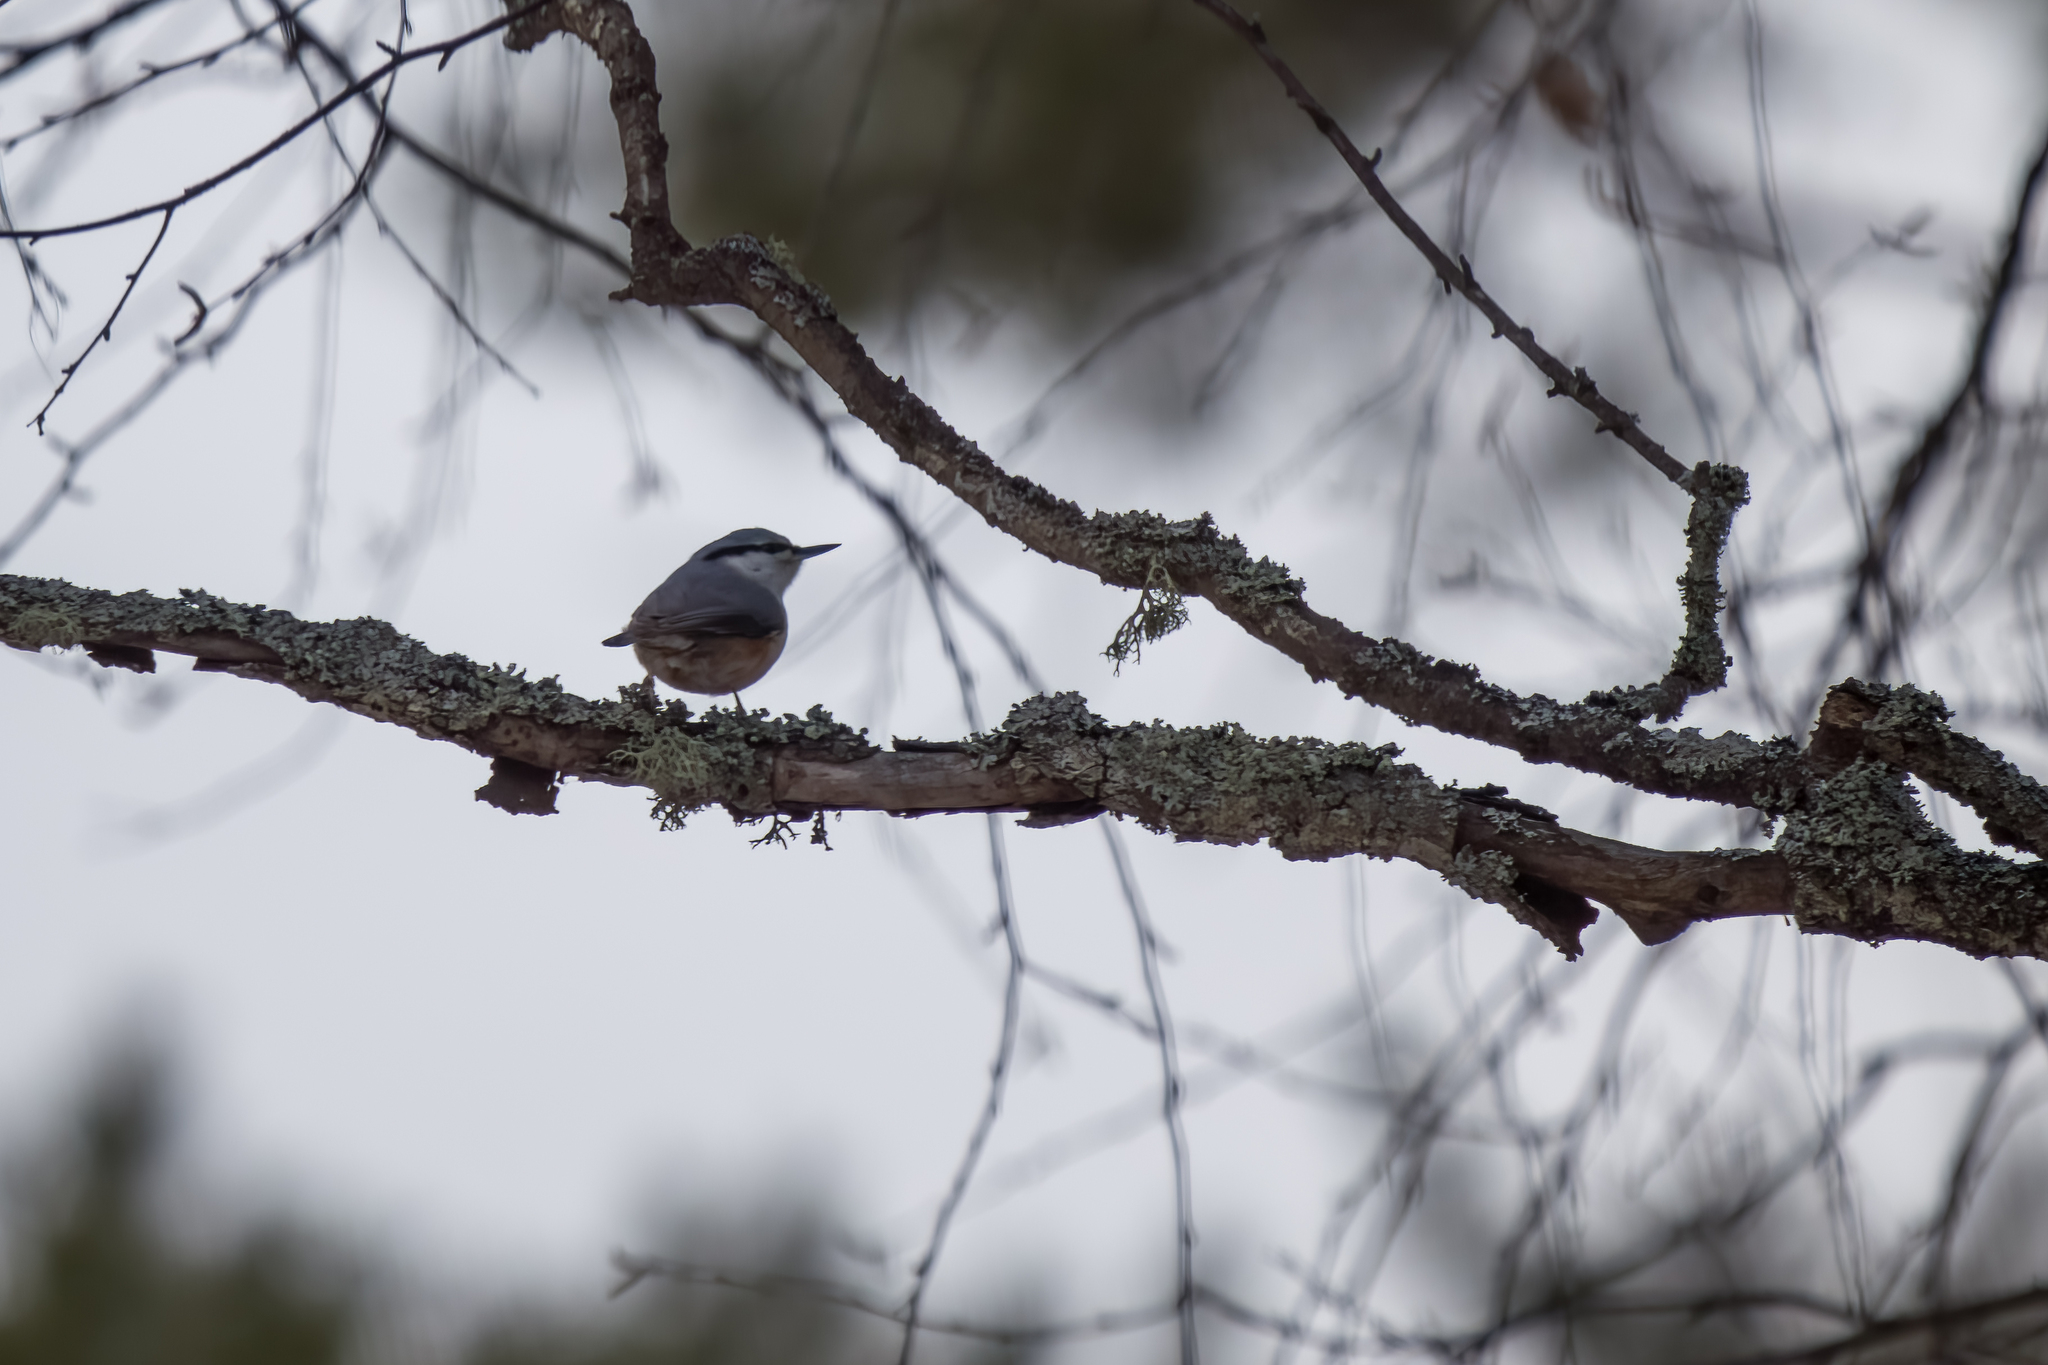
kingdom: Animalia
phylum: Chordata
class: Aves
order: Passeriformes
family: Sittidae
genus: Sitta
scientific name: Sitta europaea
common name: Eurasian nuthatch
